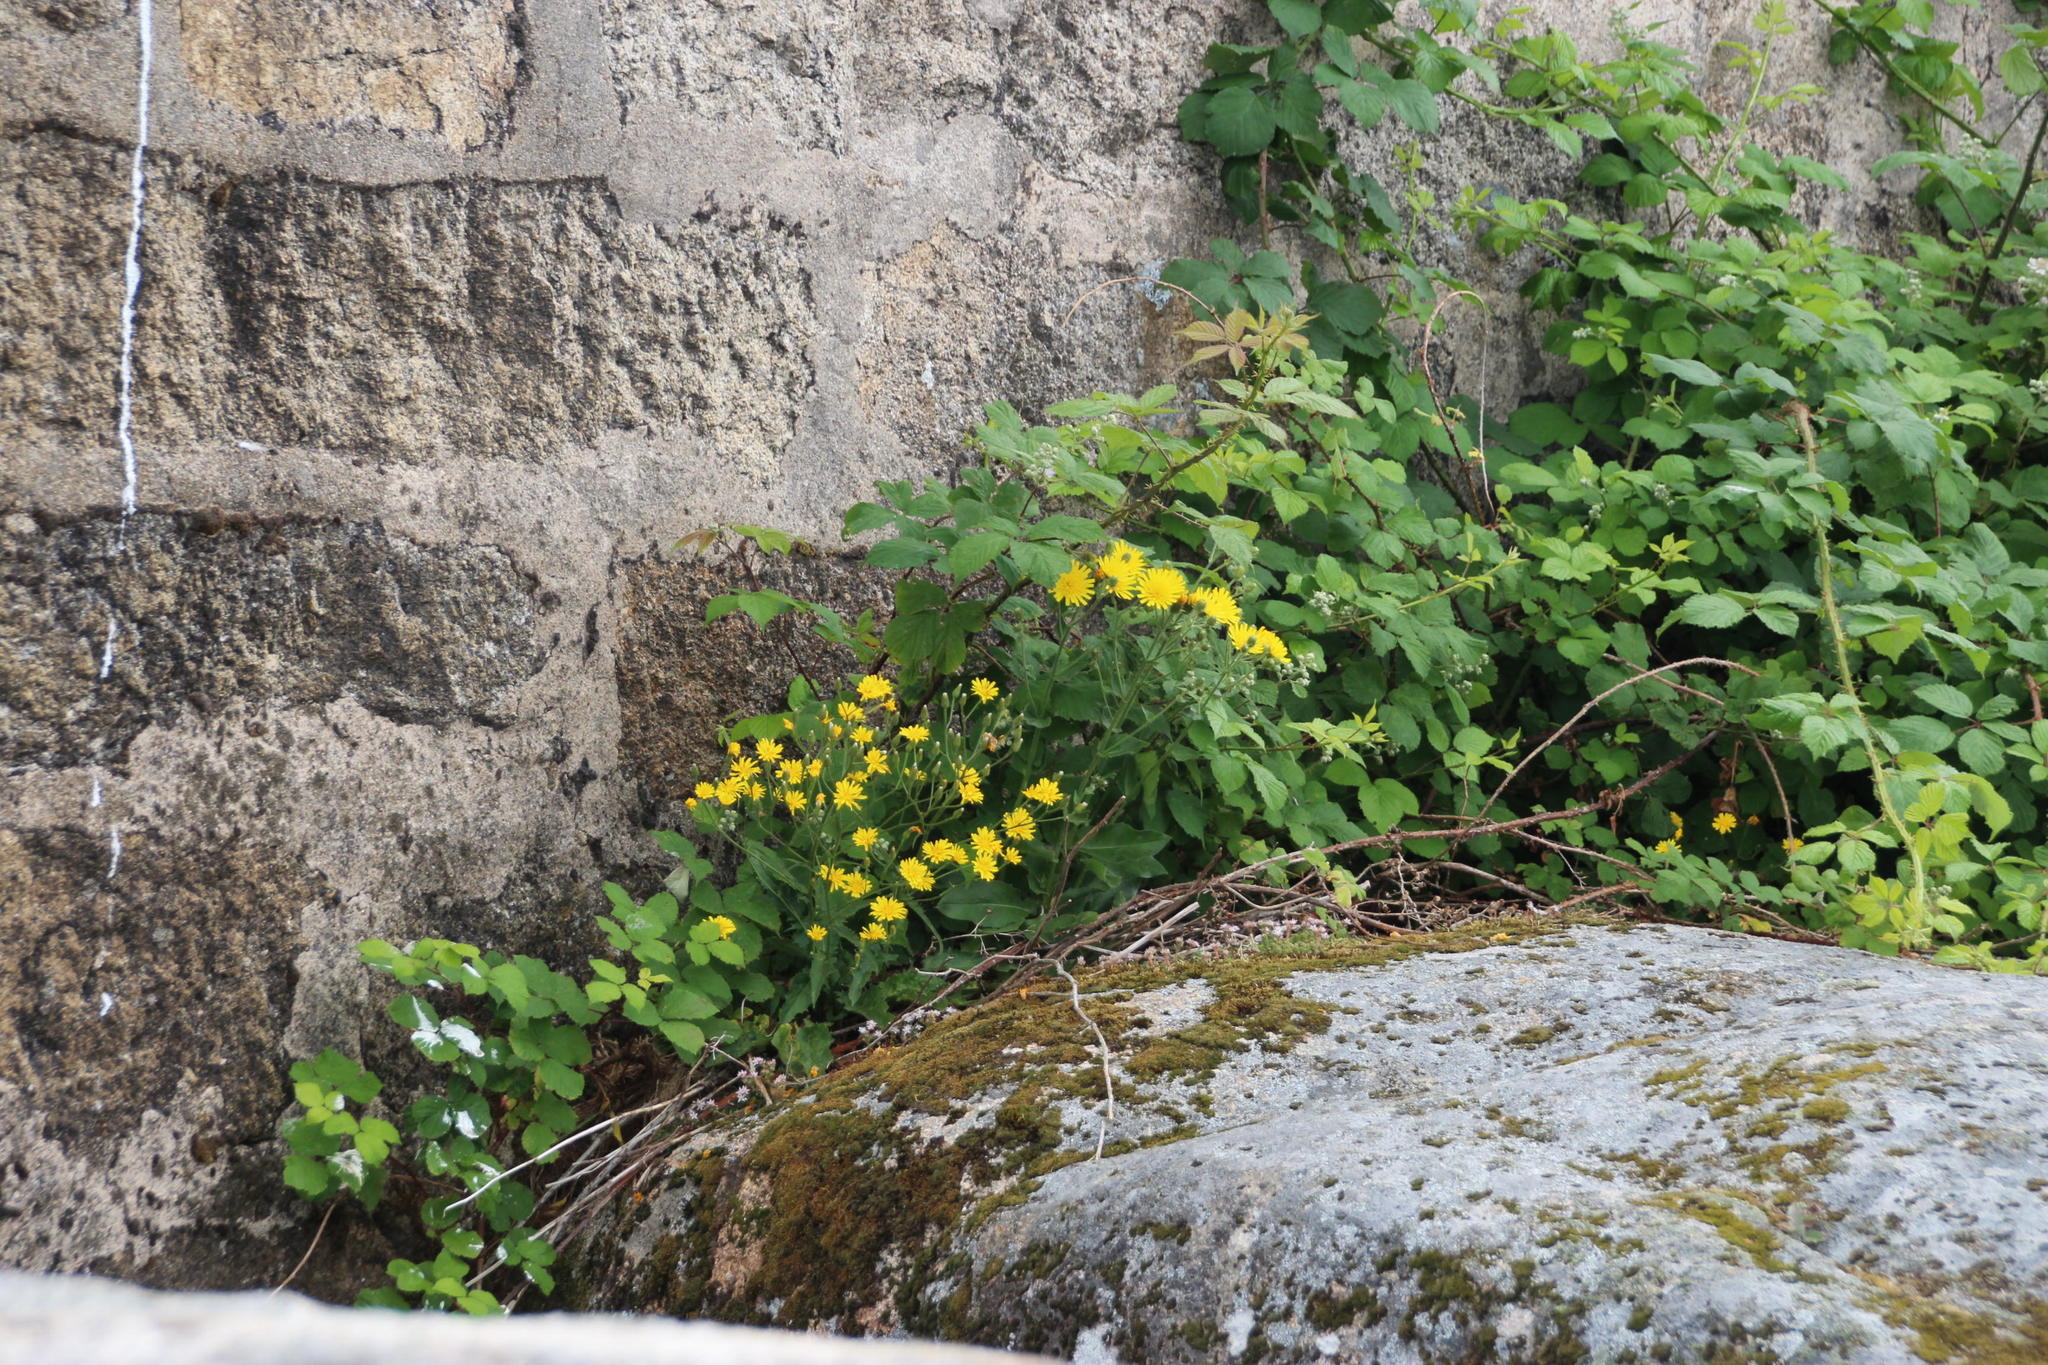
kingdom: Plantae
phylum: Tracheophyta
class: Magnoliopsida
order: Asterales
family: Asteraceae
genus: Crepis
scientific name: Crepis lampsanoides
